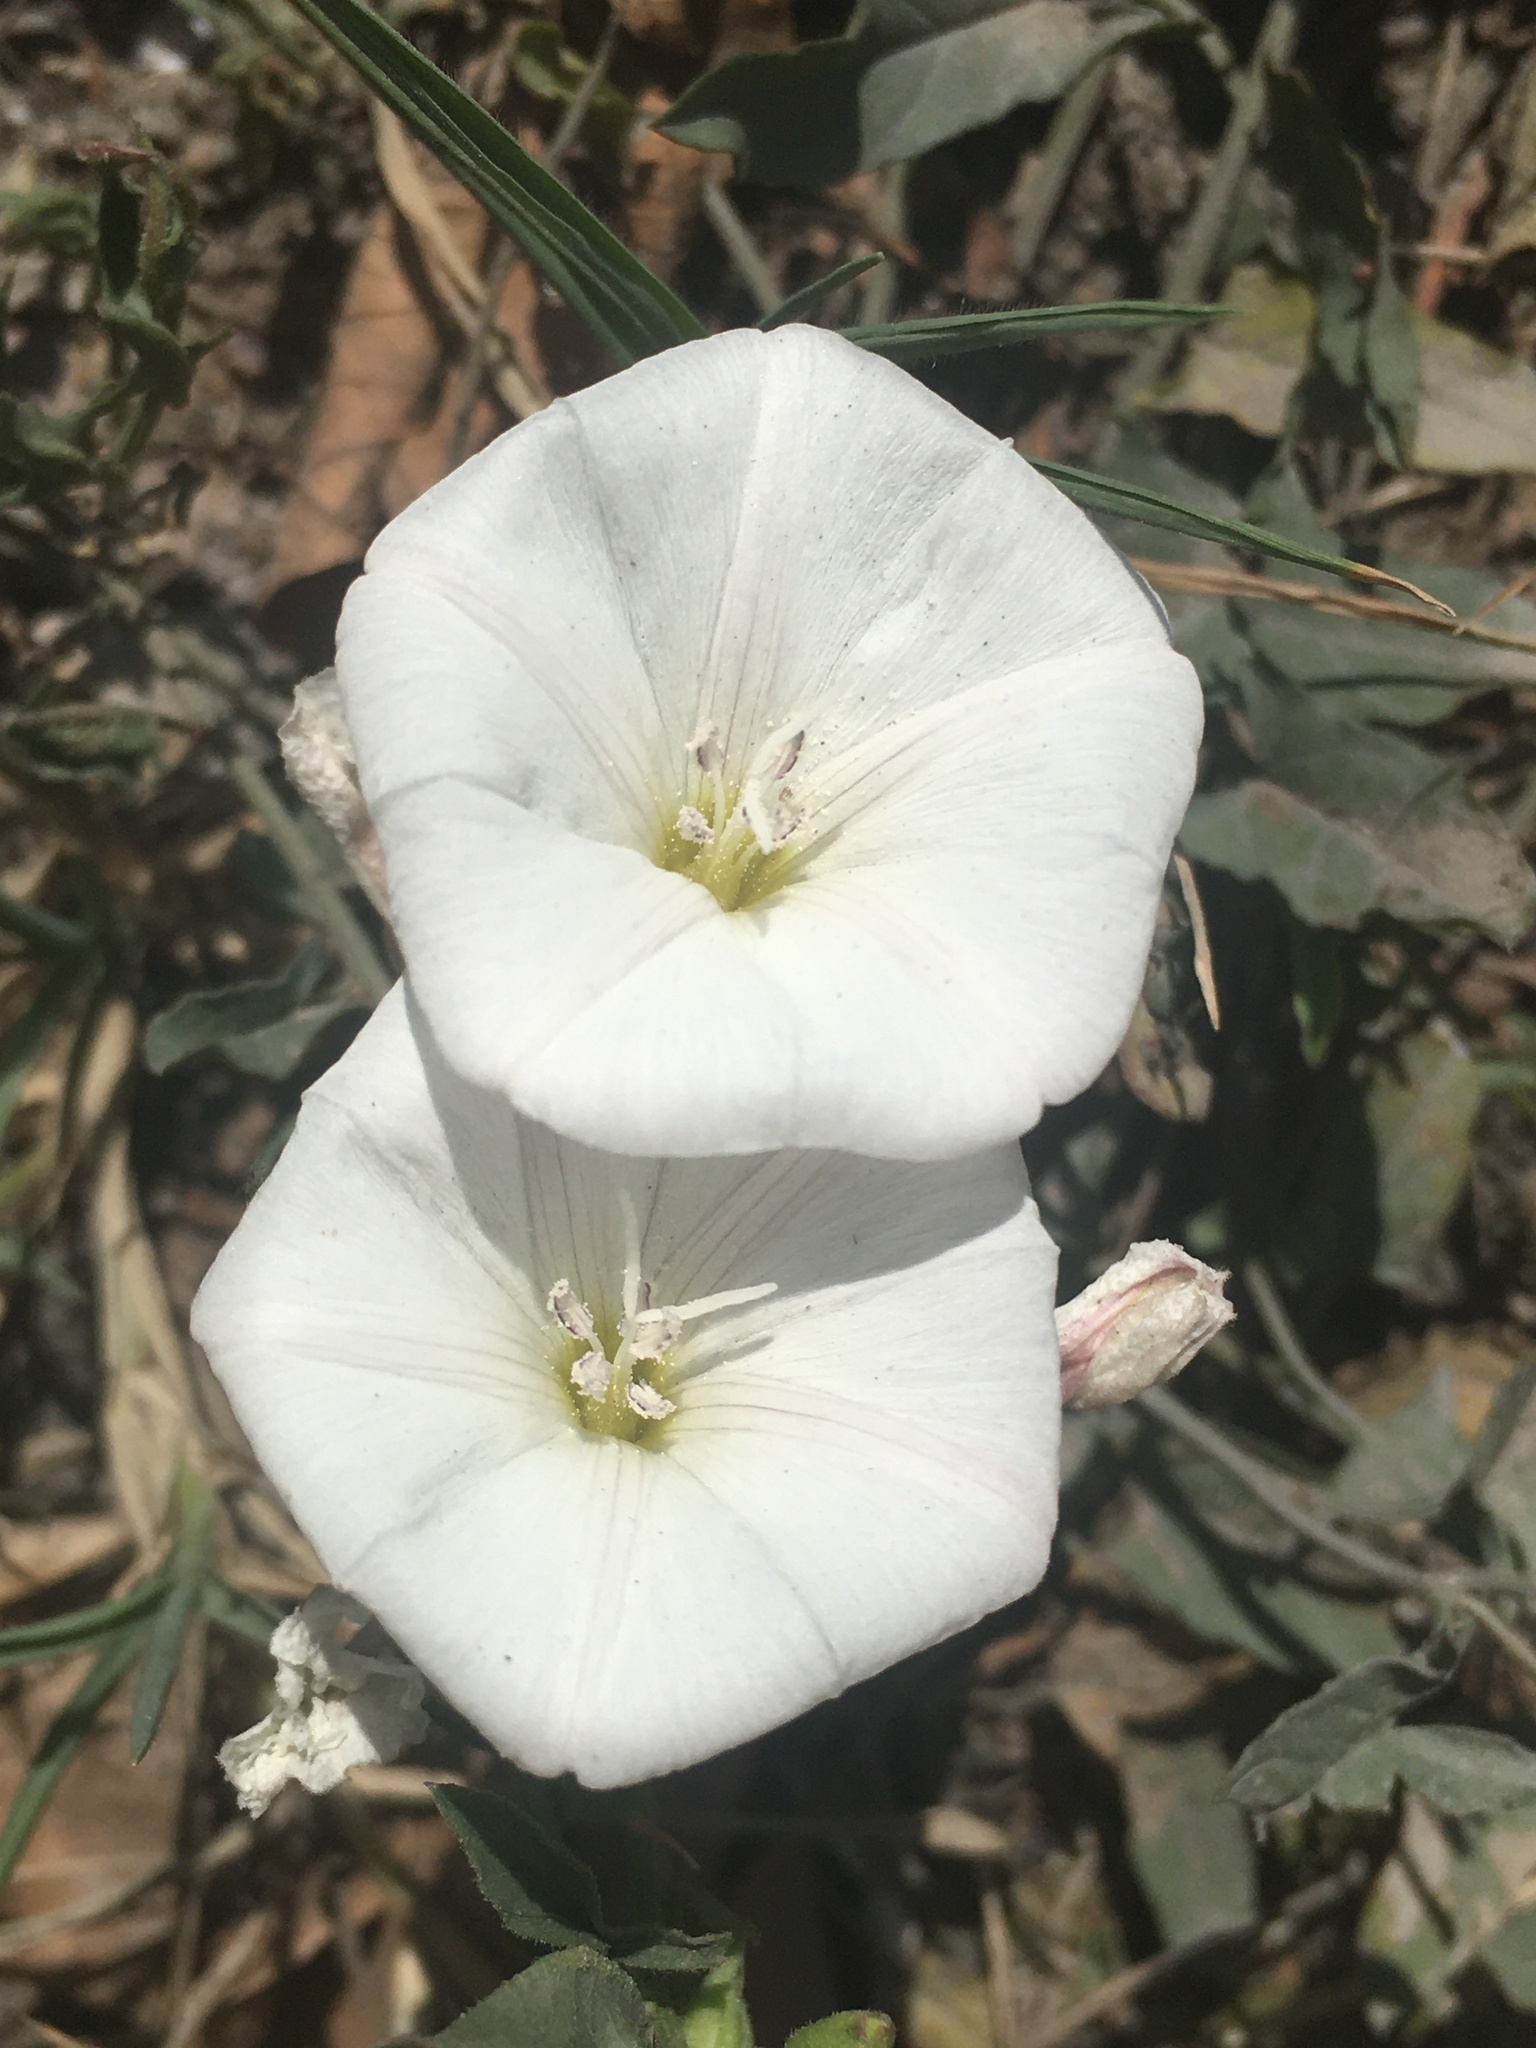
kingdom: Plantae
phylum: Tracheophyta
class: Magnoliopsida
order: Solanales
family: Convolvulaceae
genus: Convolvulus
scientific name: Convolvulus arvensis
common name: Field bindweed
